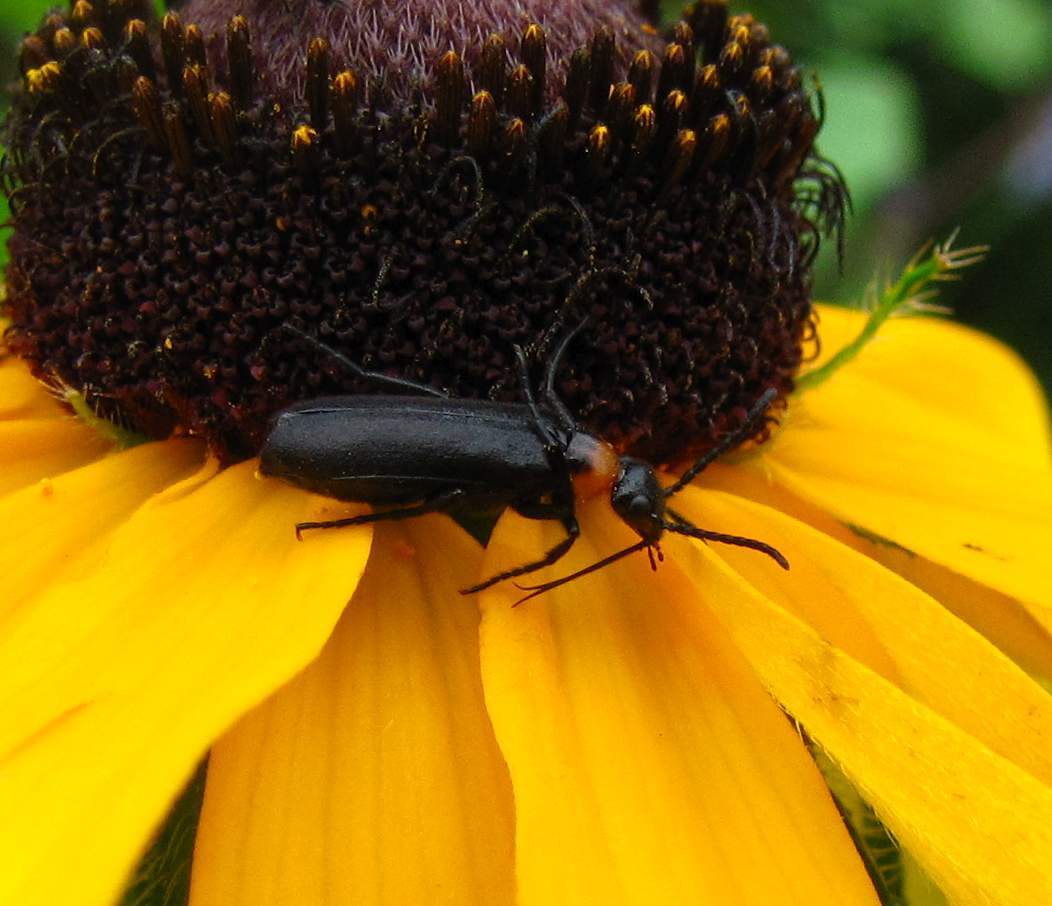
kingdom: Animalia
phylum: Arthropoda
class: Insecta
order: Coleoptera
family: Meloidae
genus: Nemognatha
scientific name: Nemognatha nemorensis
